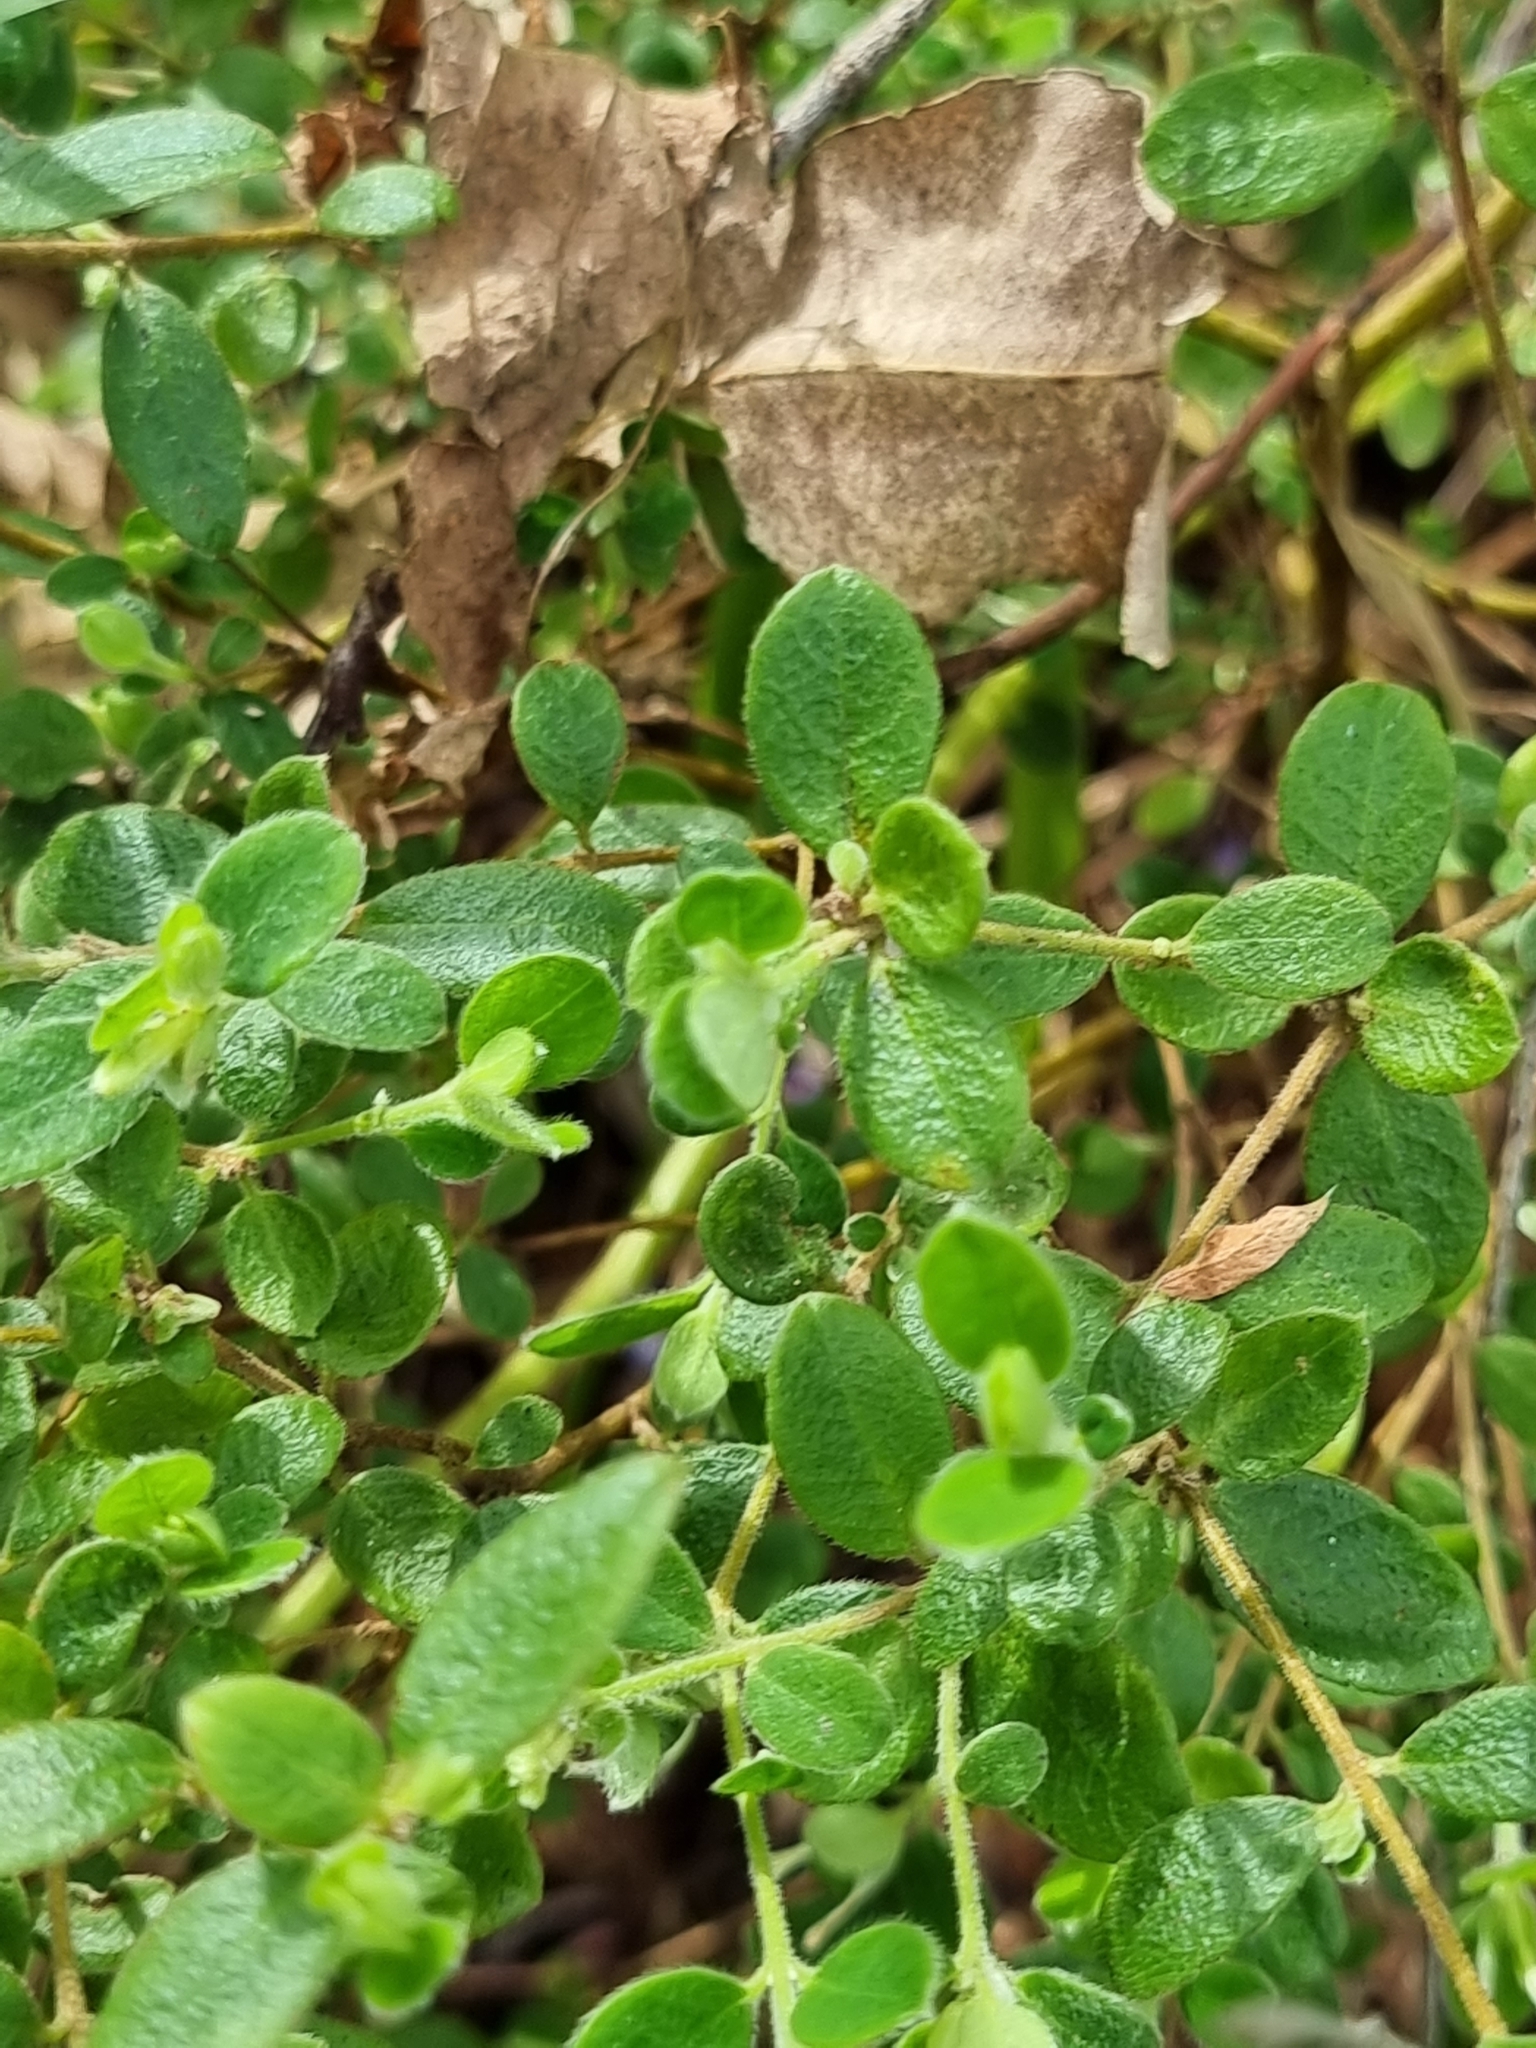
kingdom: Plantae
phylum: Tracheophyta
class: Magnoliopsida
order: Malvales
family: Thymelaeaceae
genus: Pimelea
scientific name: Pimelea altior
